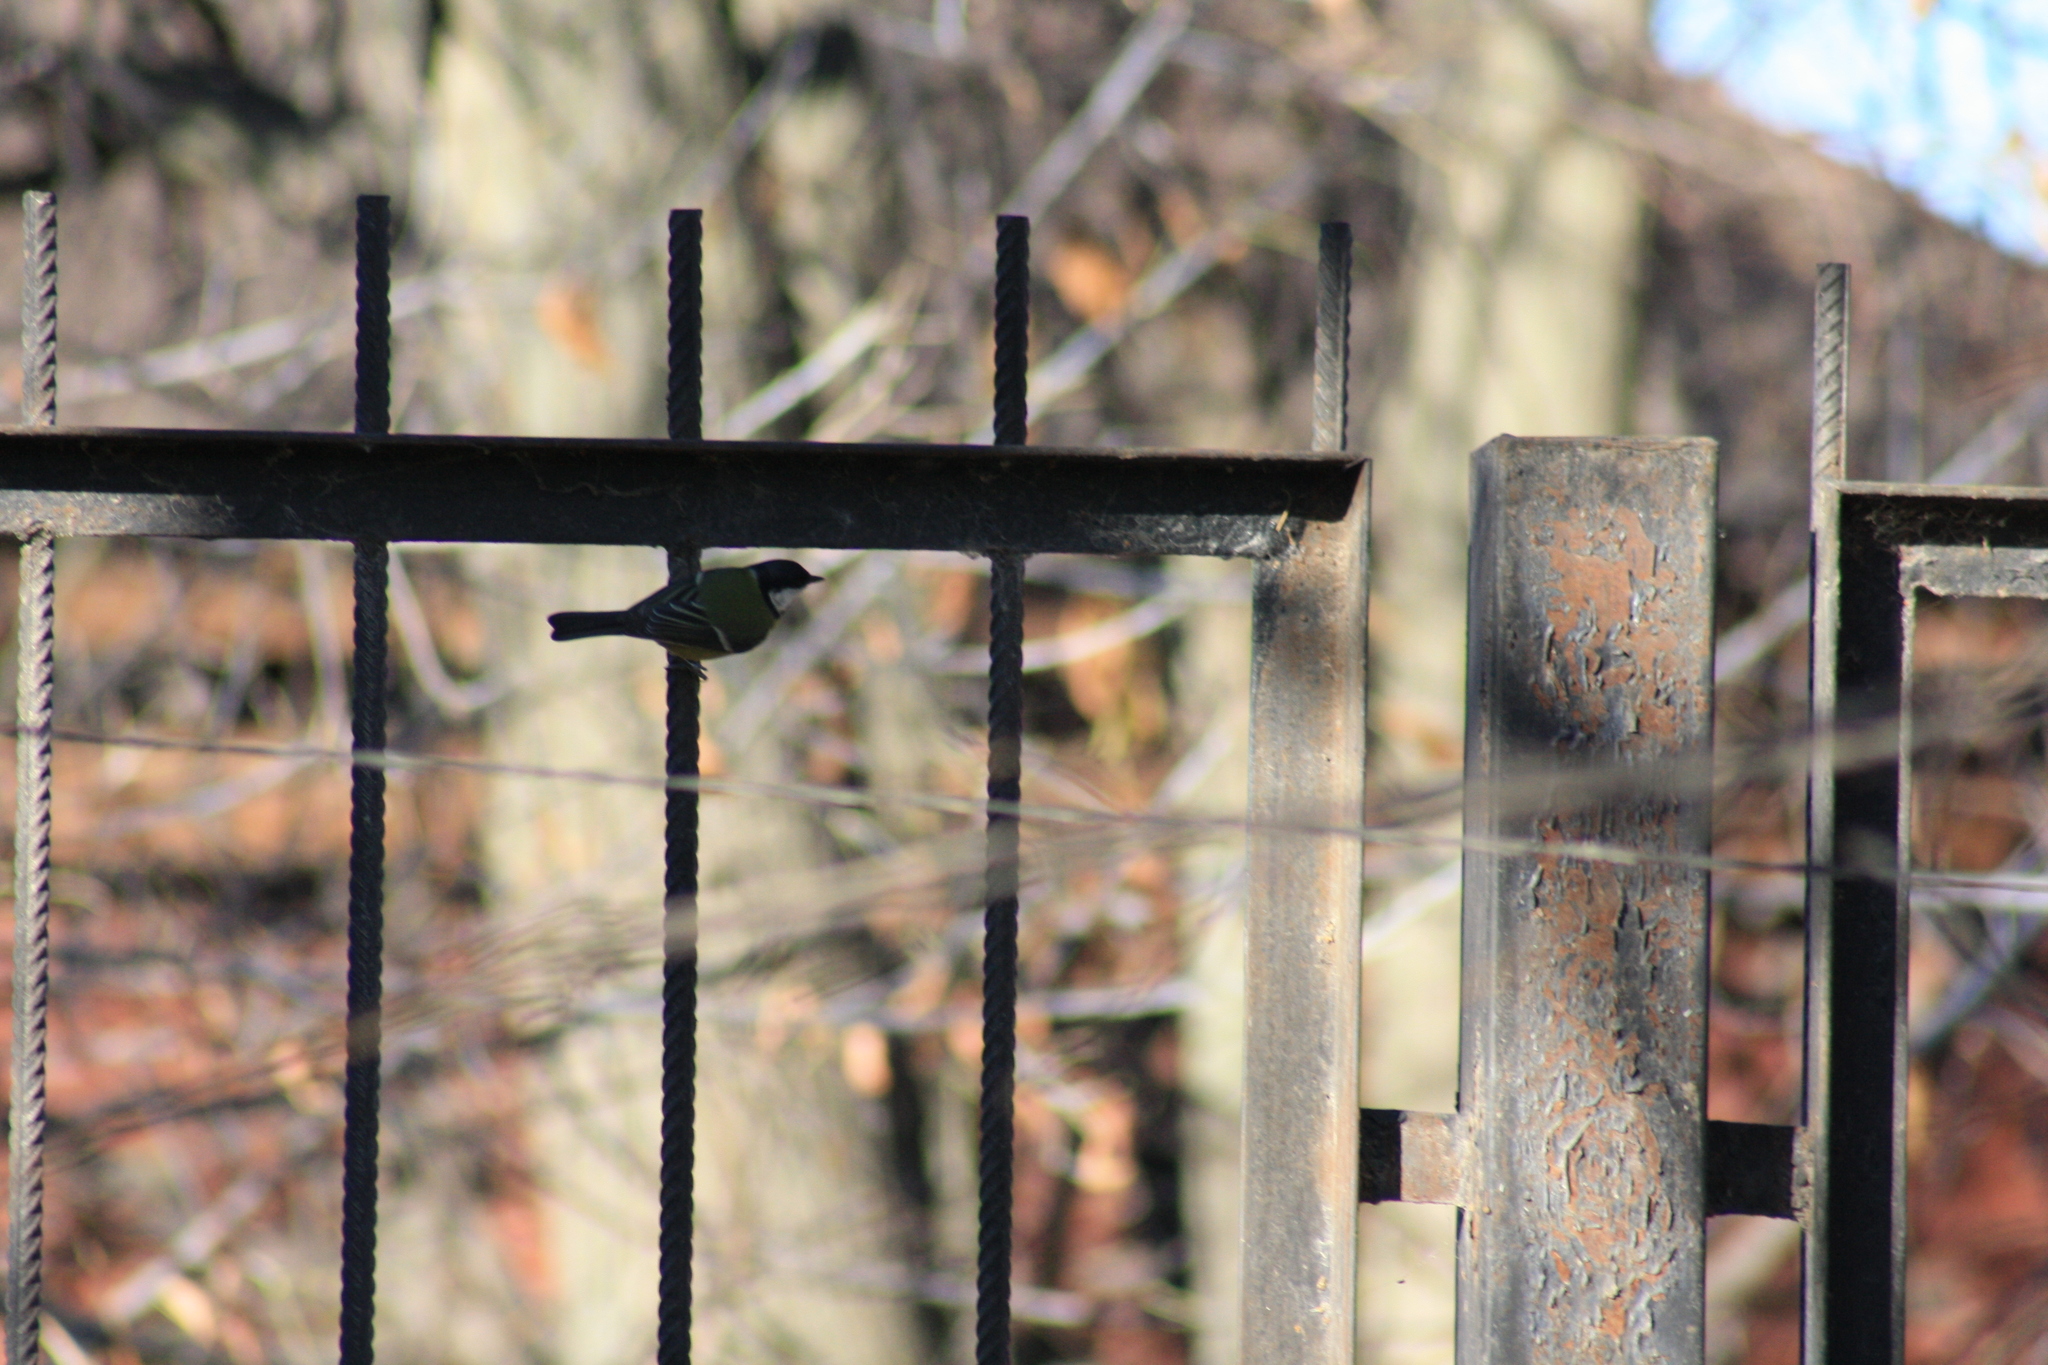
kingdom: Animalia
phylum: Chordata
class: Aves
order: Passeriformes
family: Paridae
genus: Parus
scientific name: Parus major
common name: Great tit
